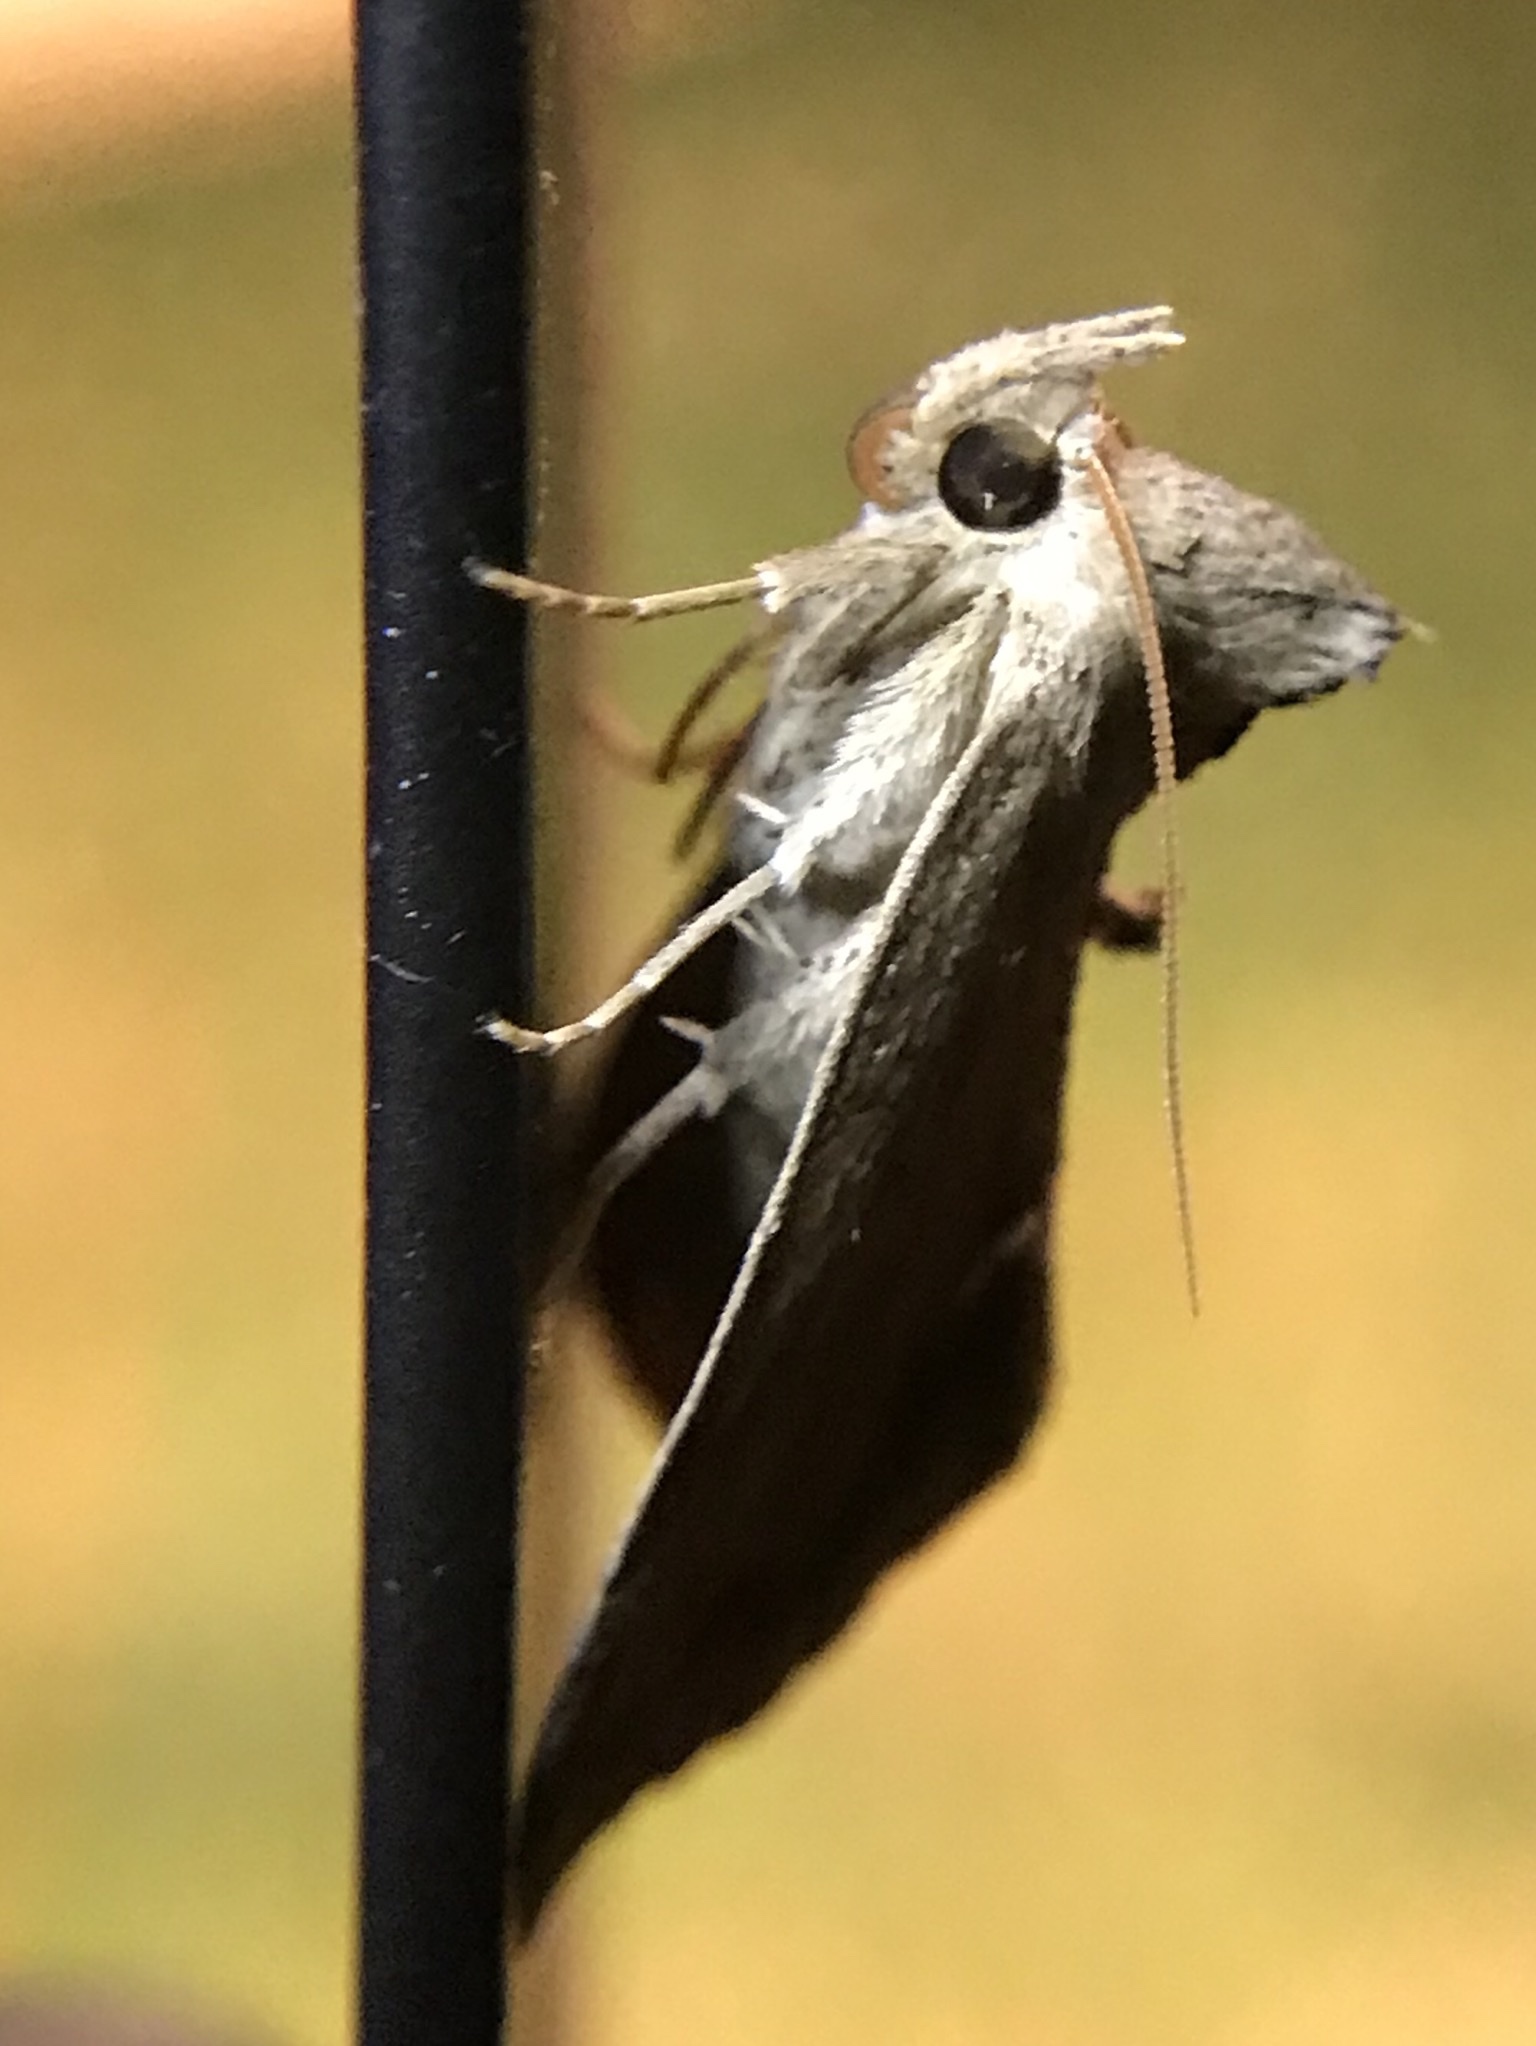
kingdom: Animalia
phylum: Arthropoda
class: Insecta
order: Lepidoptera
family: Erebidae
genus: Hypsoropha
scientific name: Hypsoropha hormos
